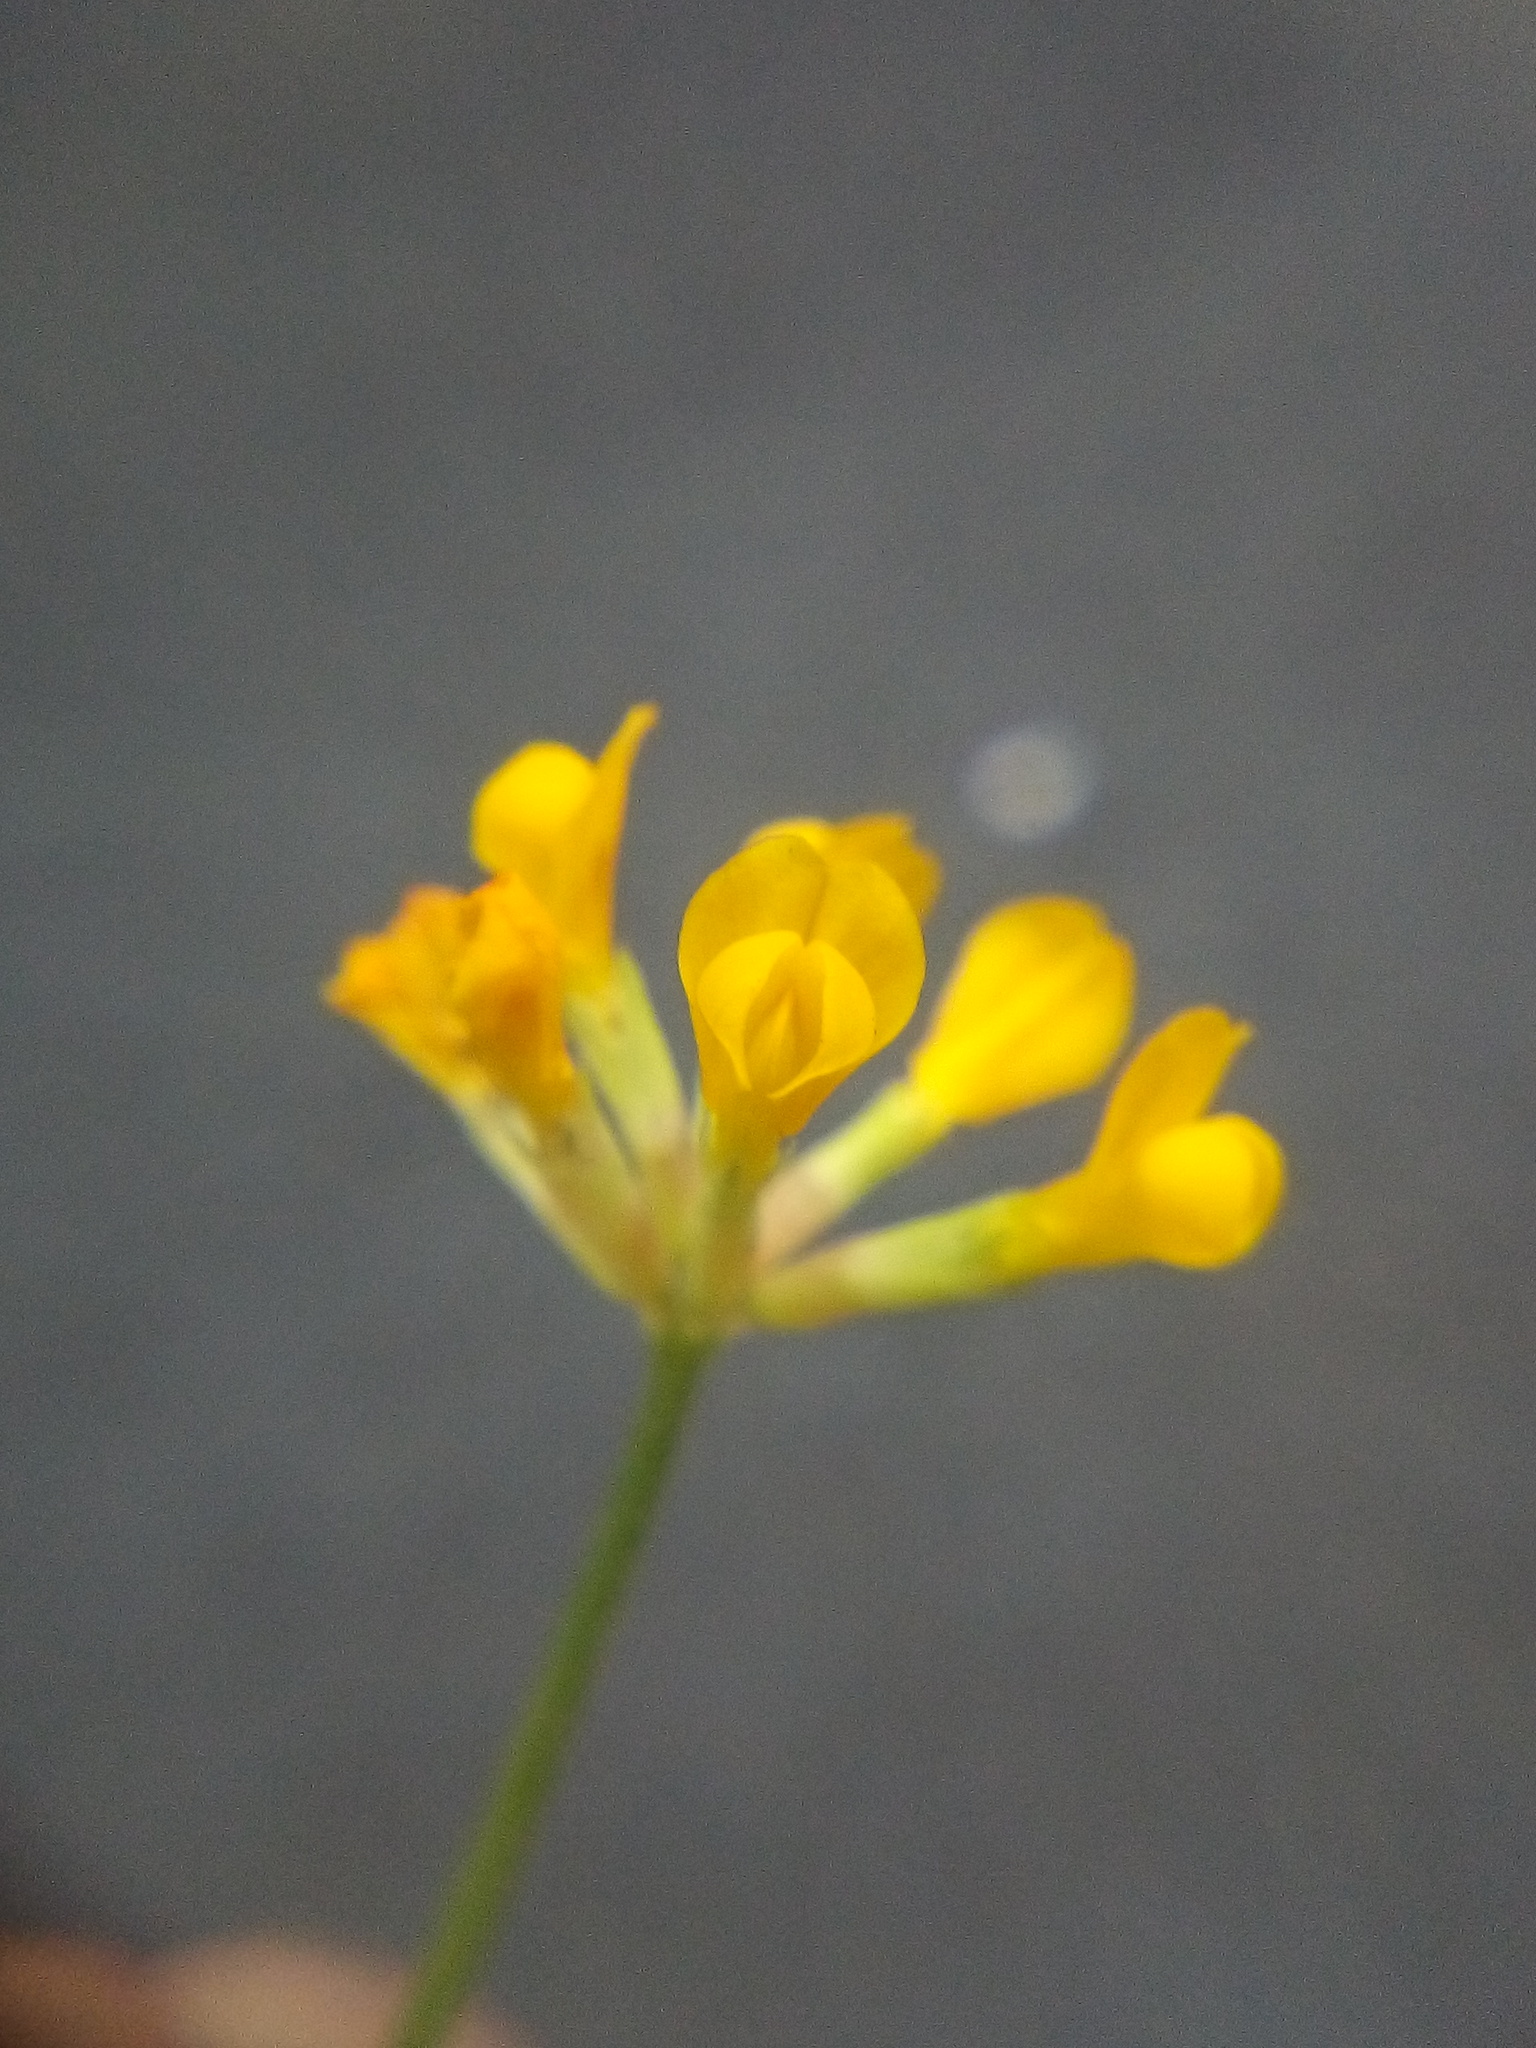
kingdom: Plantae
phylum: Tracheophyta
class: Magnoliopsida
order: Fabales
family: Fabaceae
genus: Ornithopus
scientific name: Ornithopus pinnatus
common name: Orange bird's-foot
